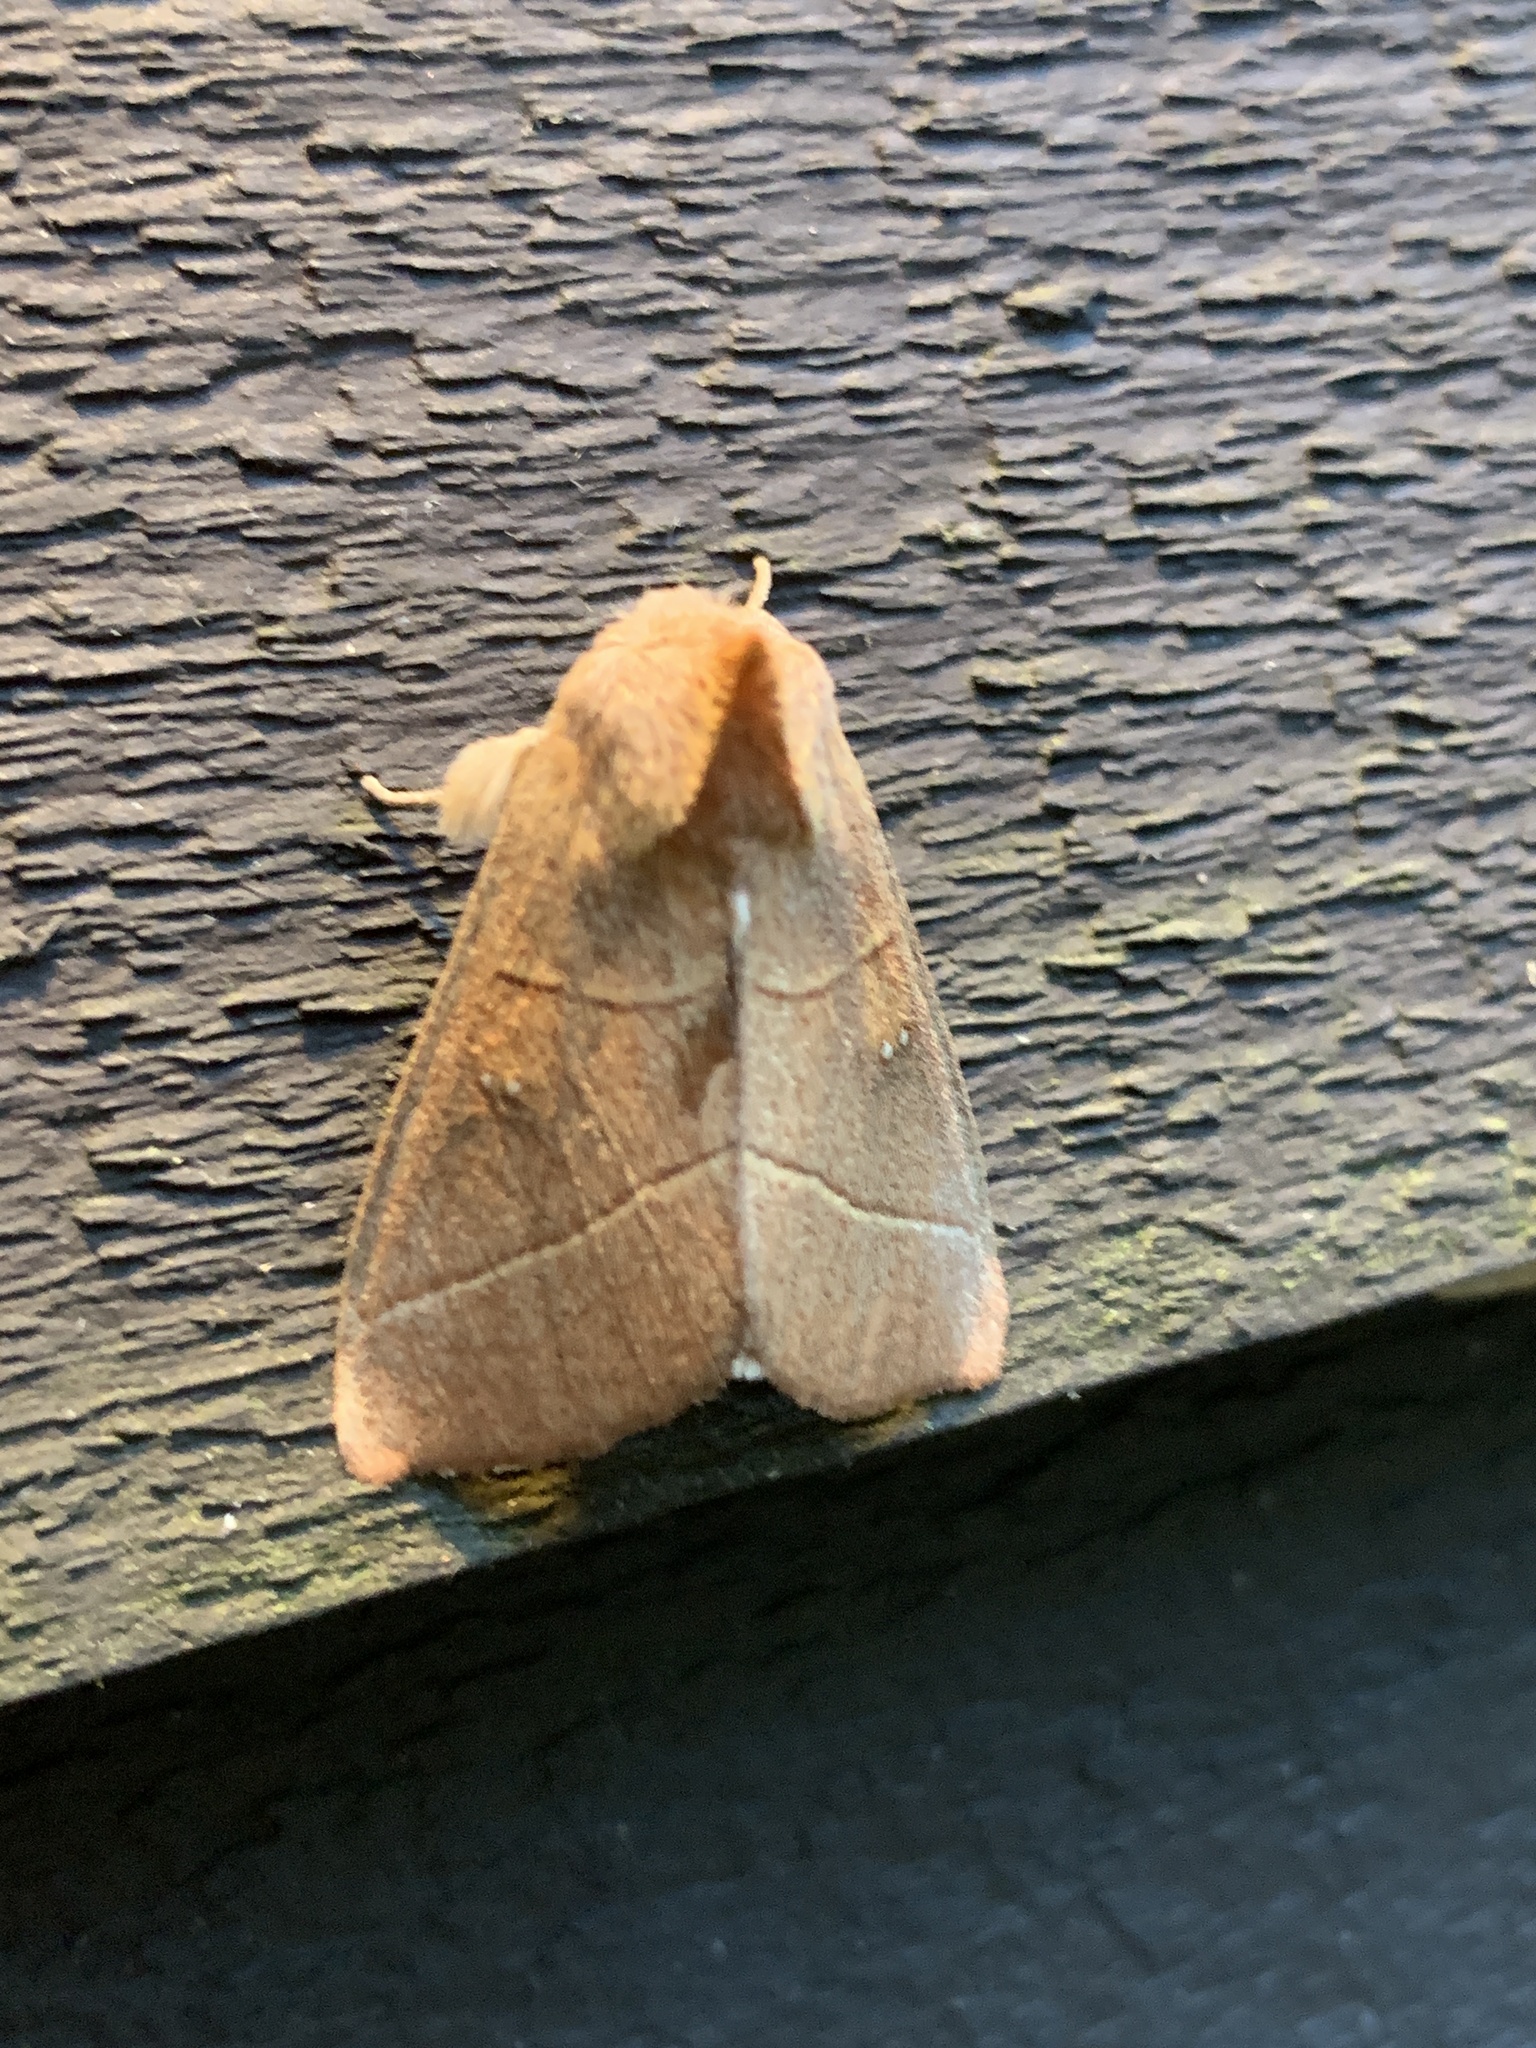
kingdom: Animalia
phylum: Arthropoda
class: Insecta
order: Lepidoptera
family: Notodontidae
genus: Nadata
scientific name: Nadata gibbosa
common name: White-dotted prominent
